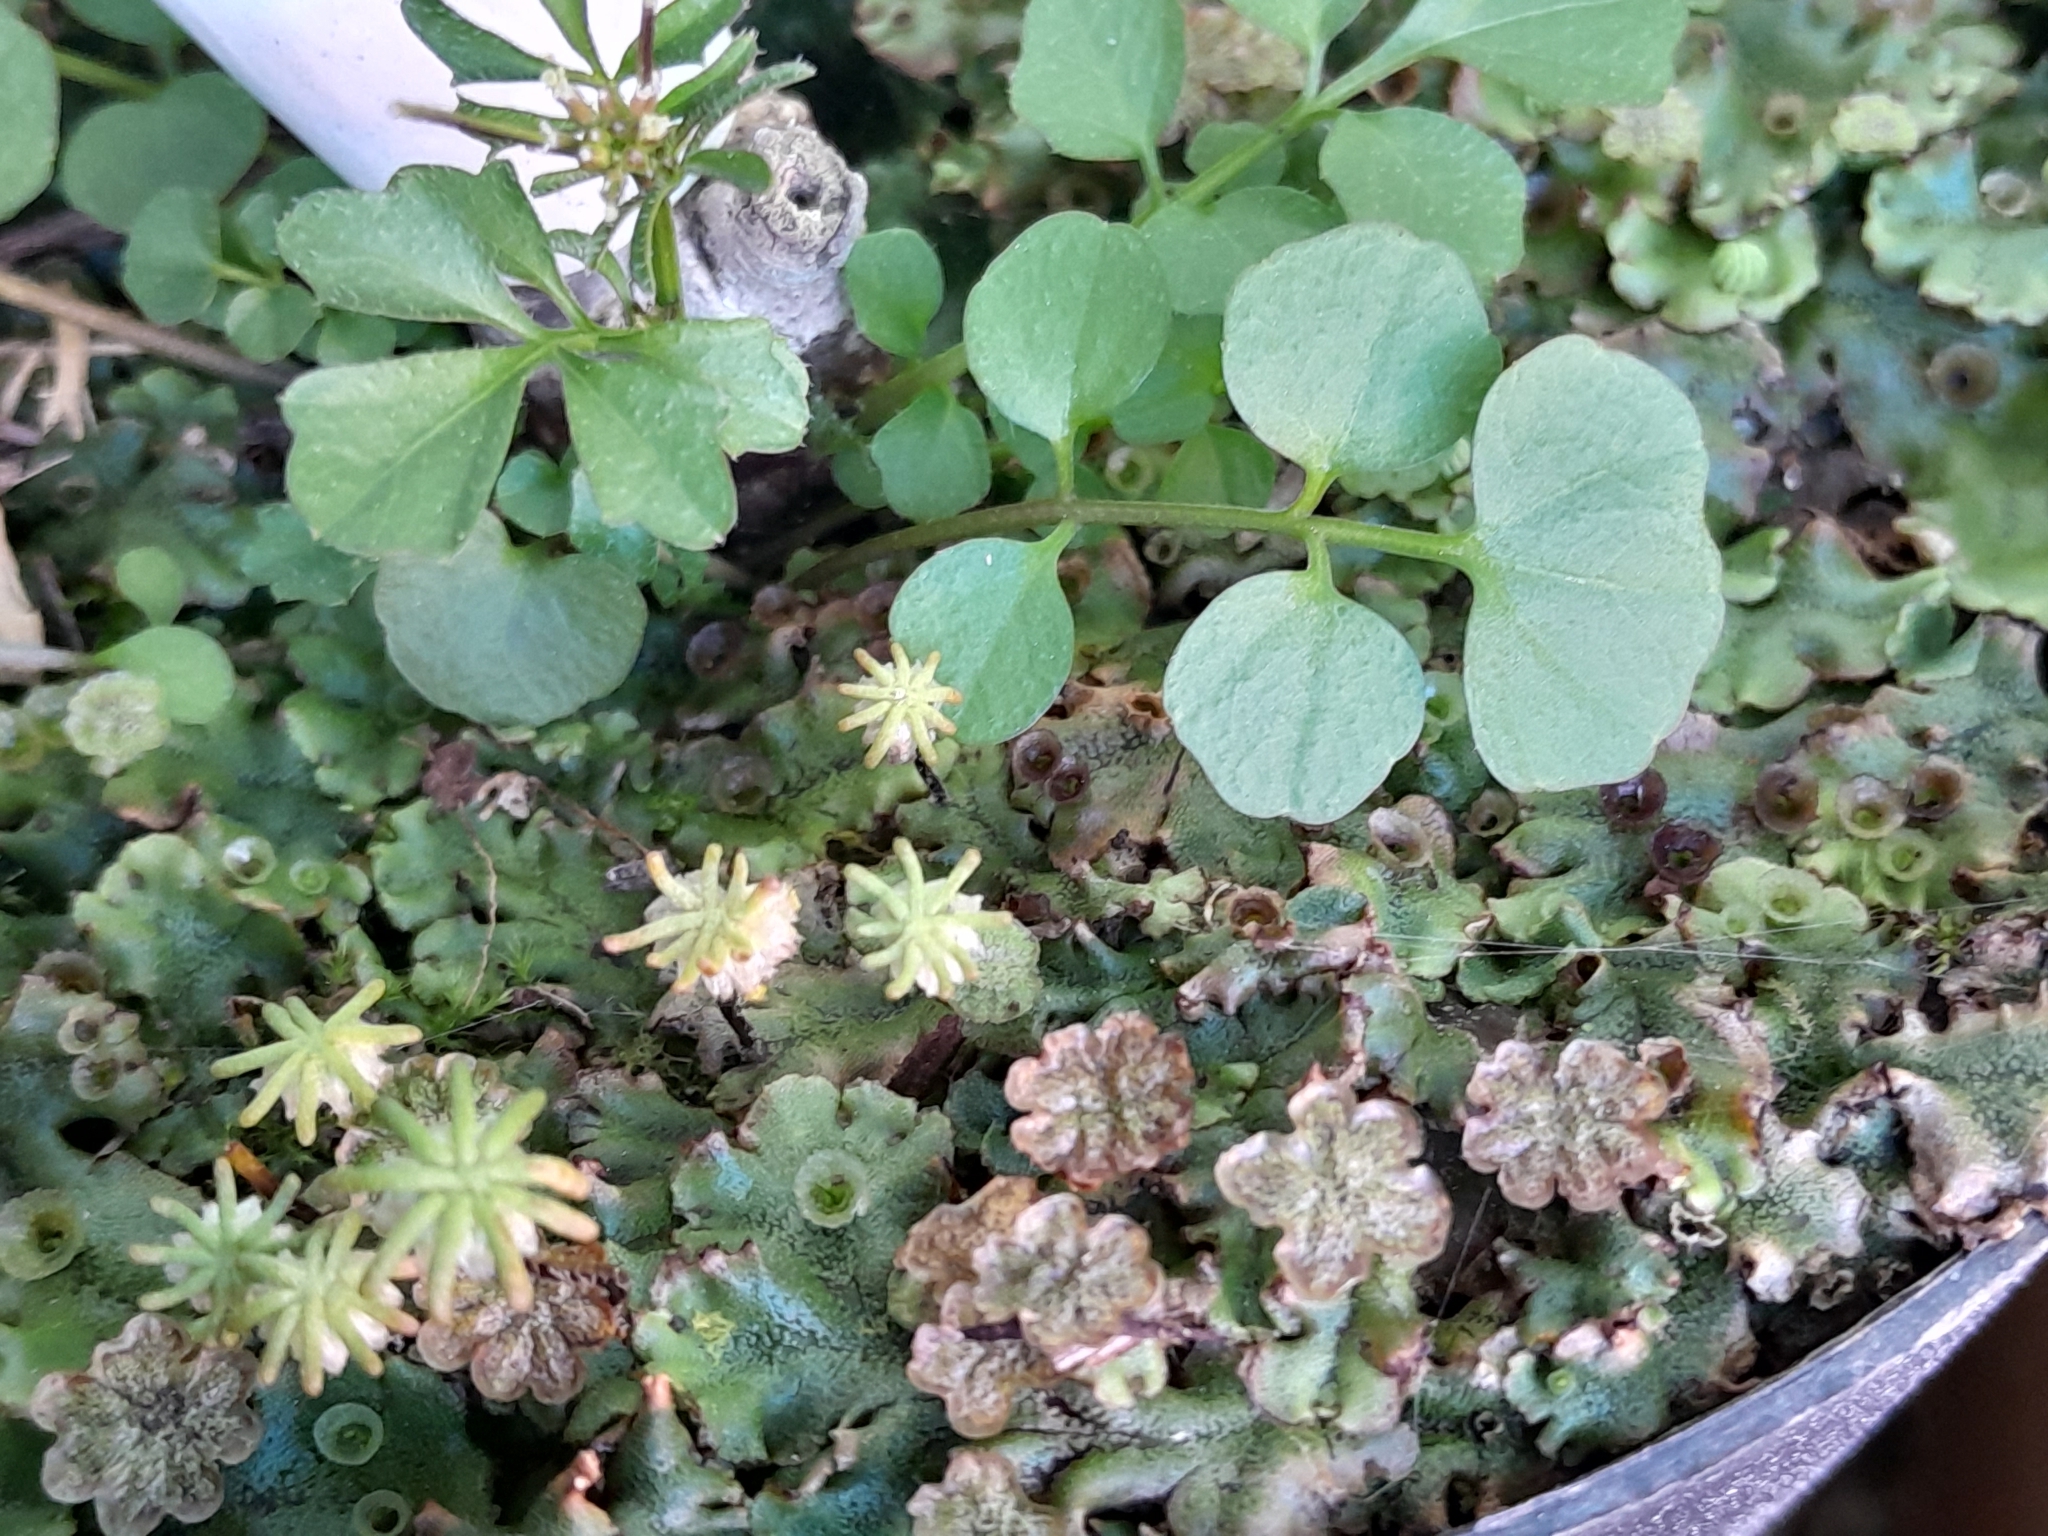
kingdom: Plantae
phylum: Marchantiophyta
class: Marchantiopsida
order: Marchantiales
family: Marchantiaceae
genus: Marchantia
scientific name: Marchantia polymorpha
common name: Common liverwort
